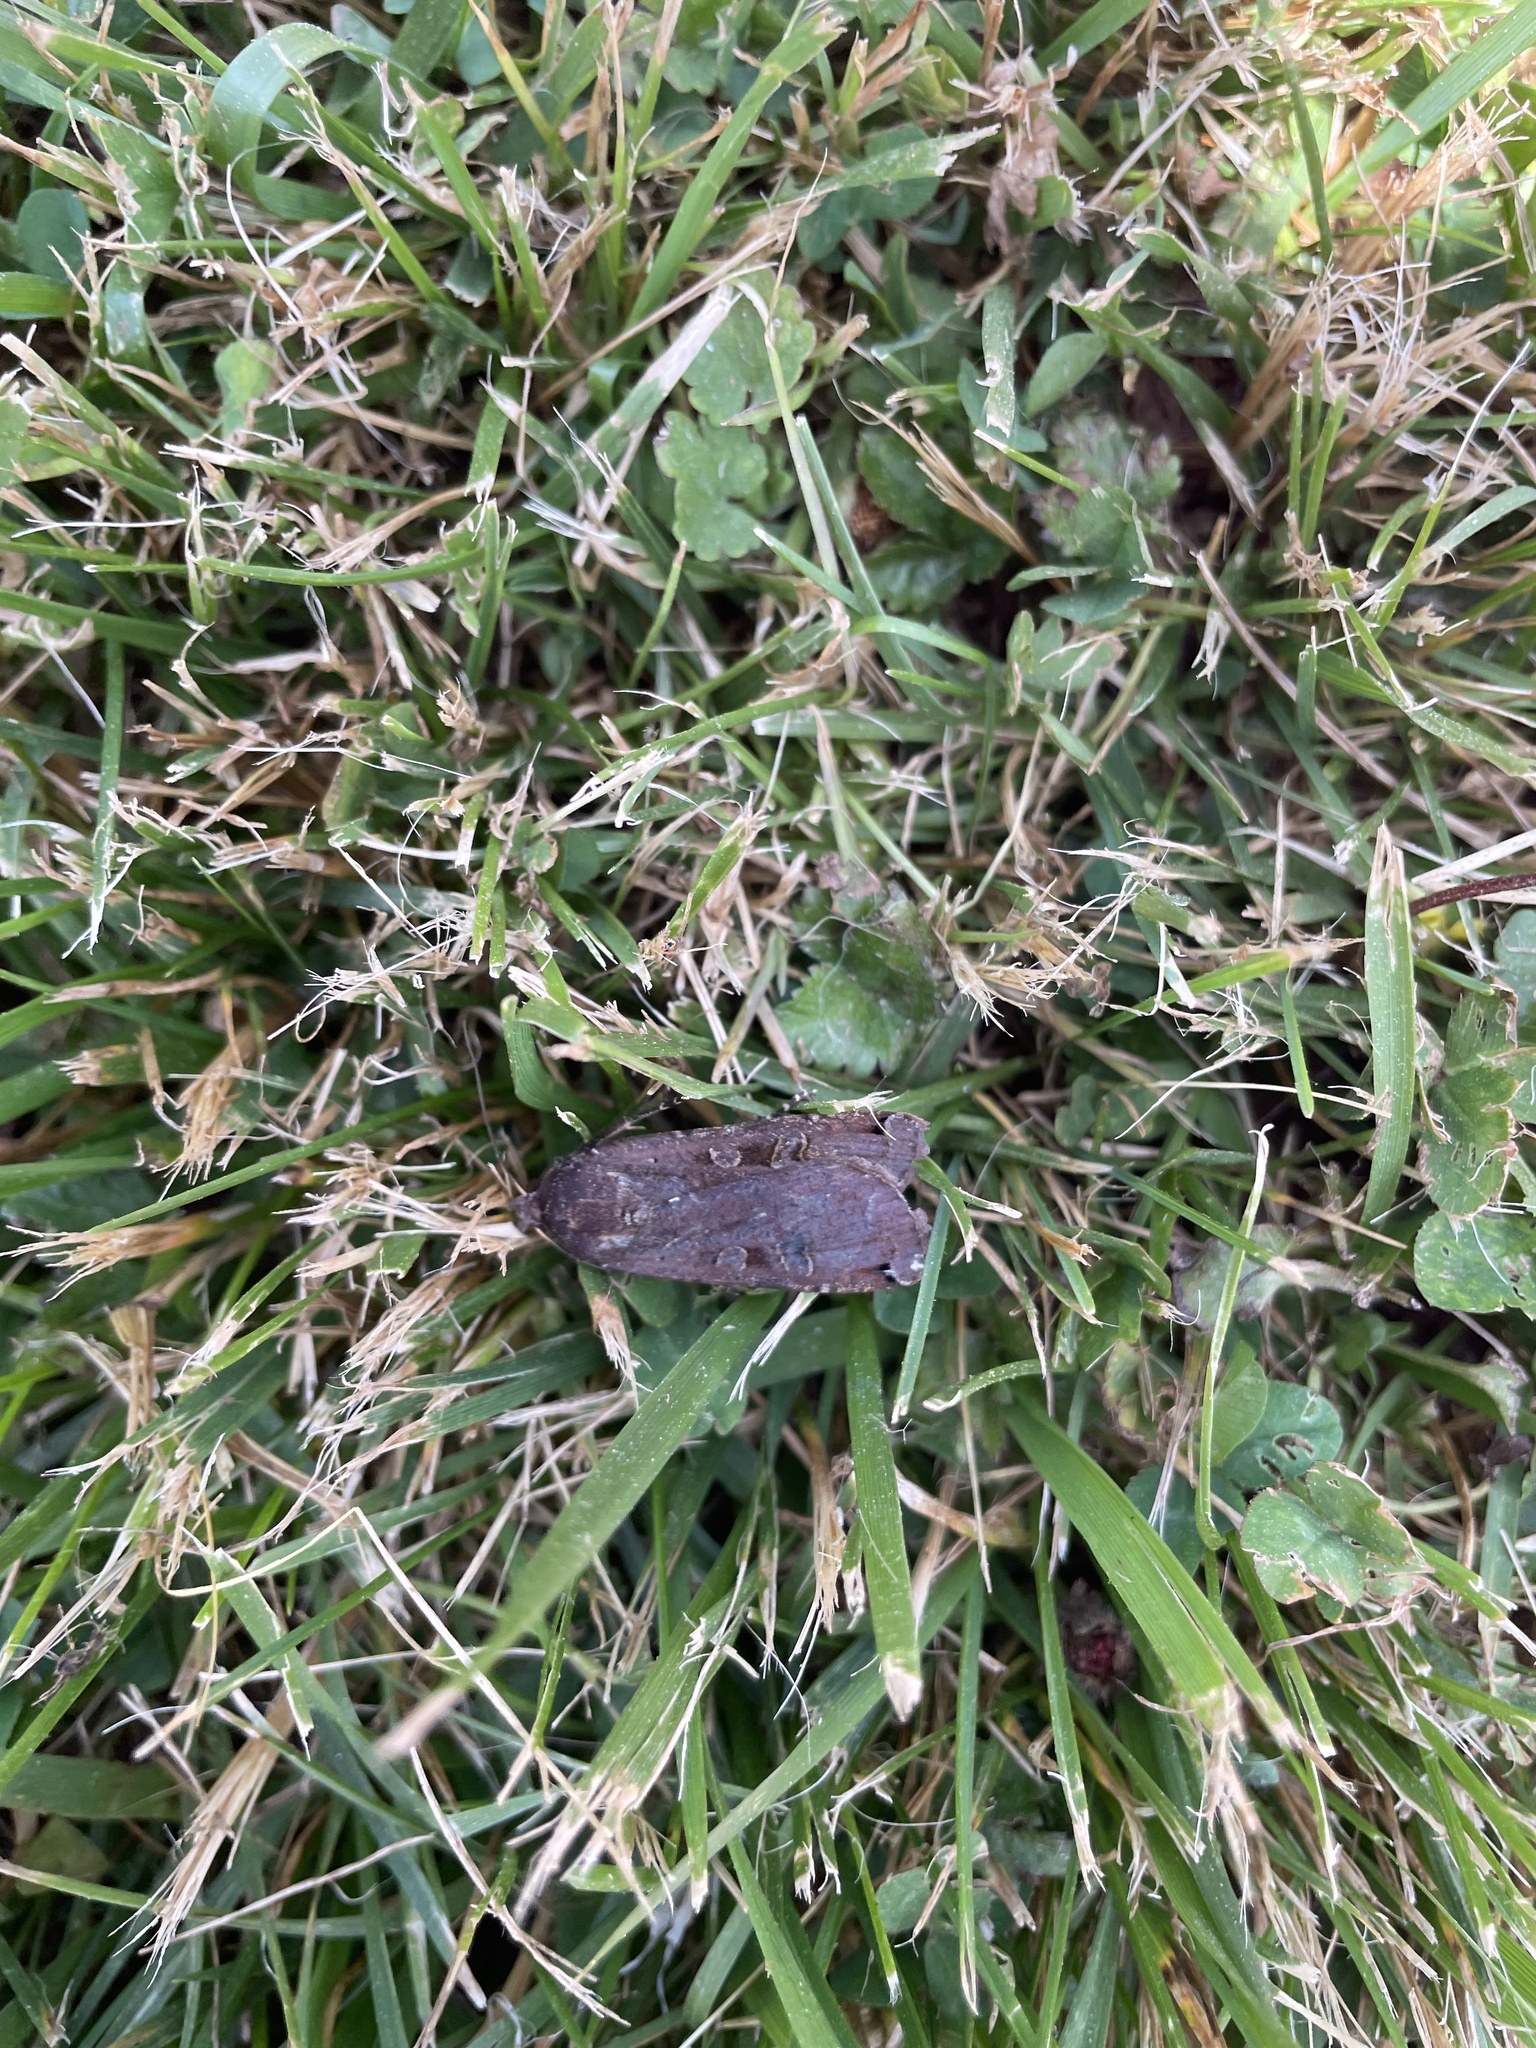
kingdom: Animalia
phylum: Arthropoda
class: Insecta
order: Lepidoptera
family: Noctuidae
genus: Noctua
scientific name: Noctua pronuba
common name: Large yellow underwing
